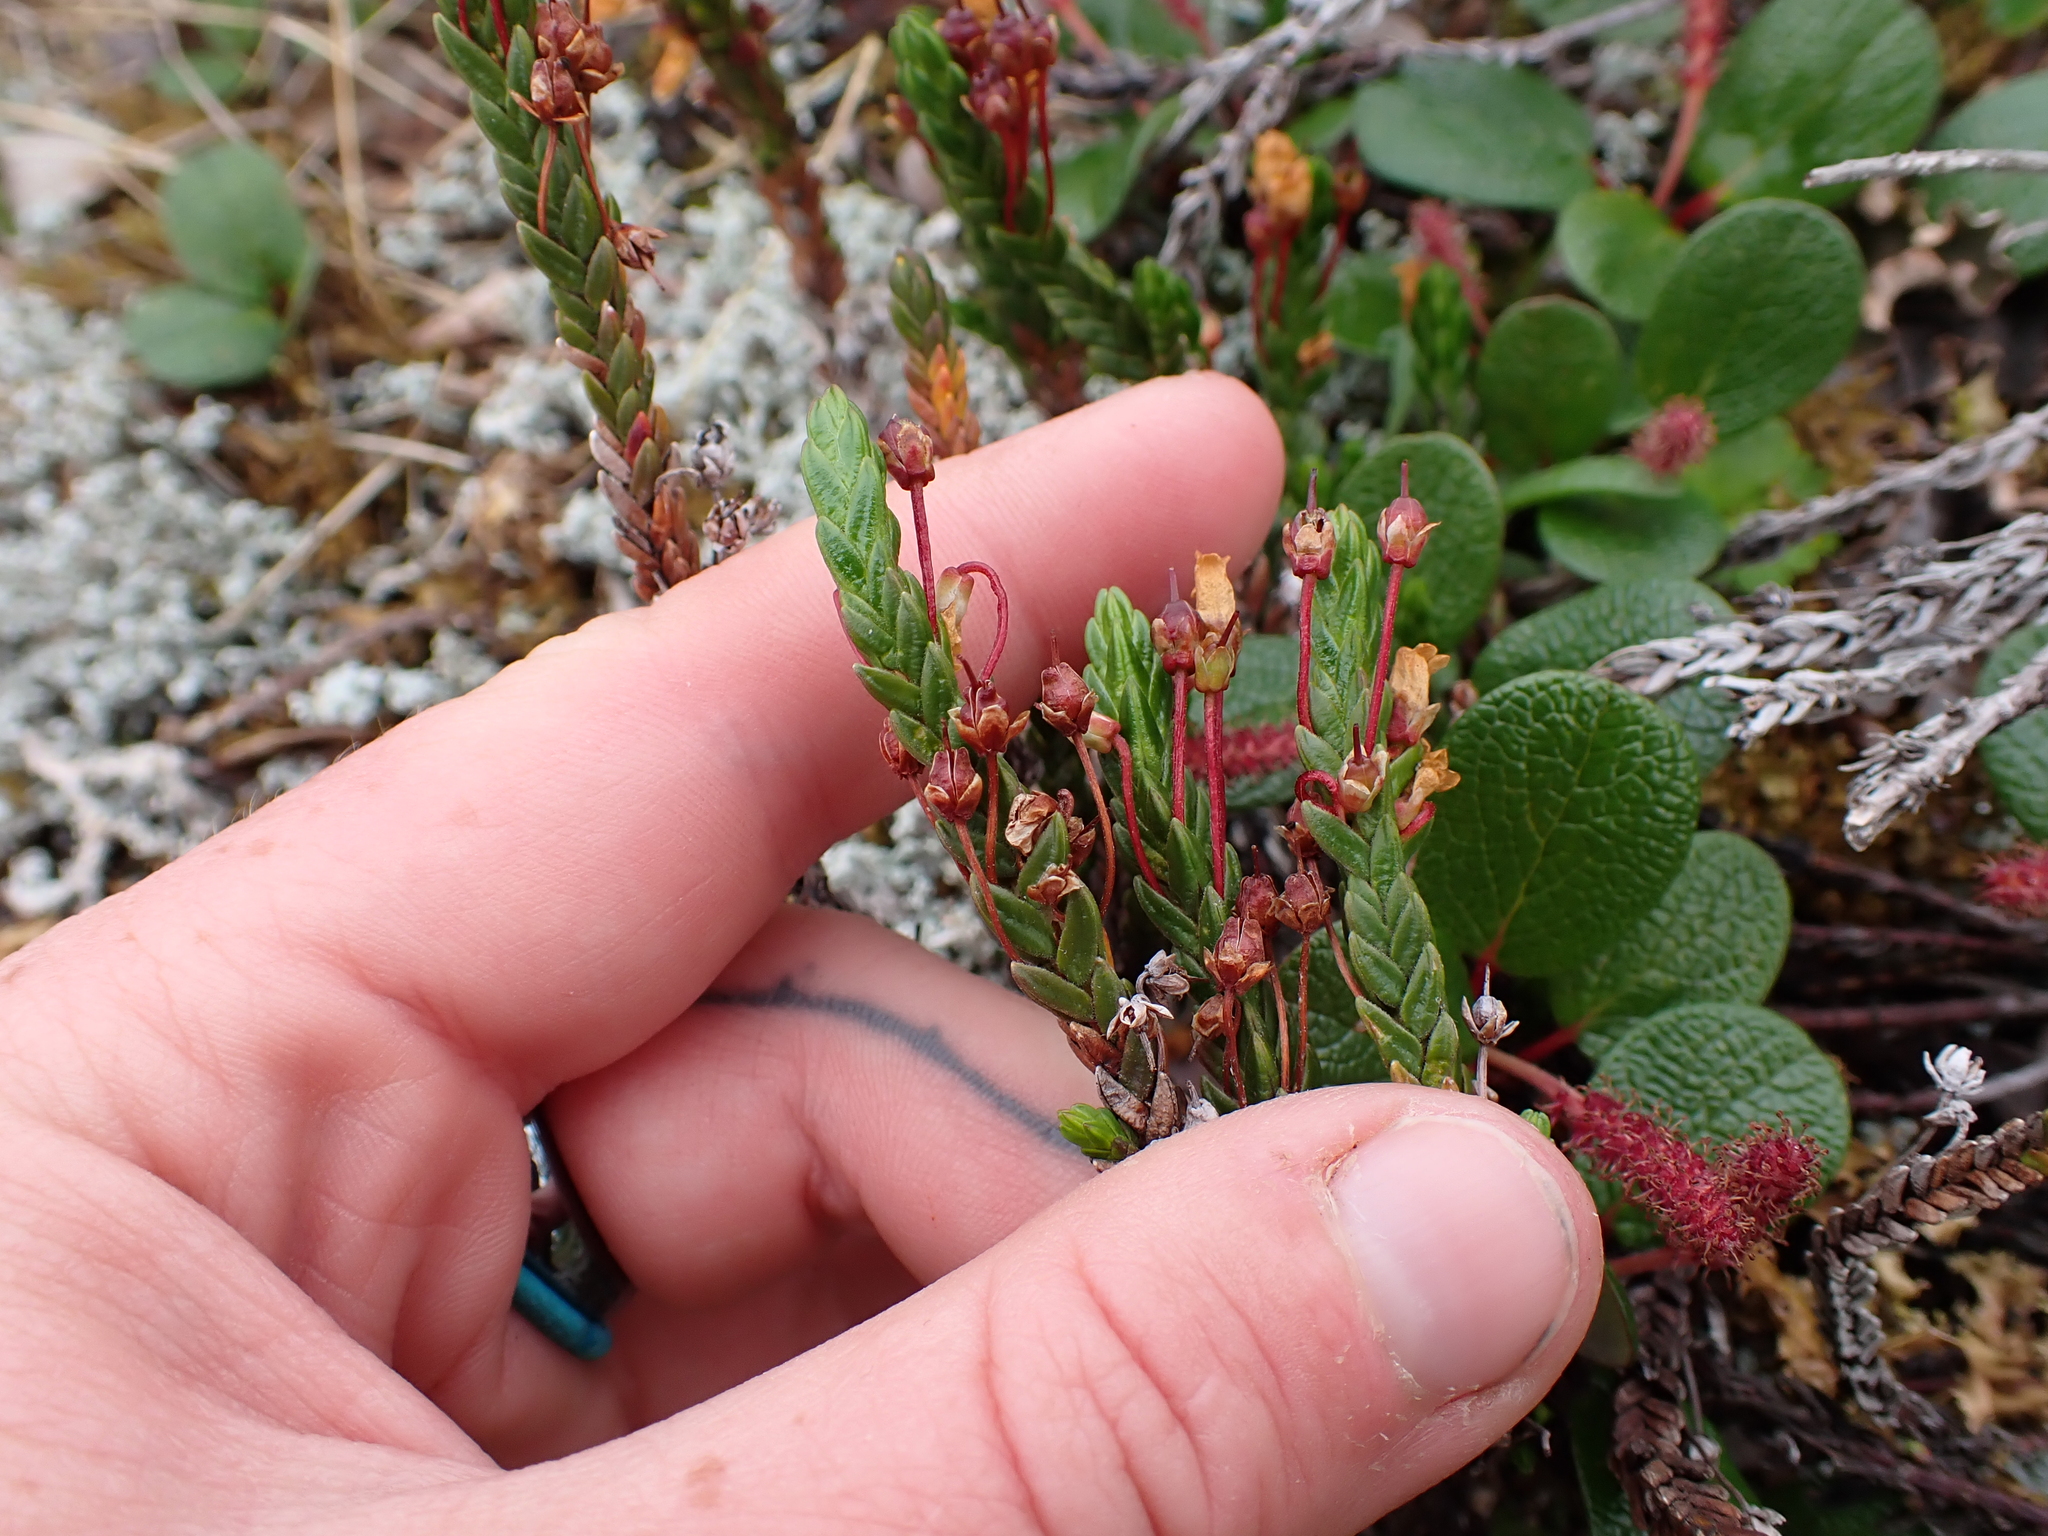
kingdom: Plantae
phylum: Tracheophyta
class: Magnoliopsida
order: Ericales
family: Ericaceae
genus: Cassiope
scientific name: Cassiope tetragona
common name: Arctic bell heather
